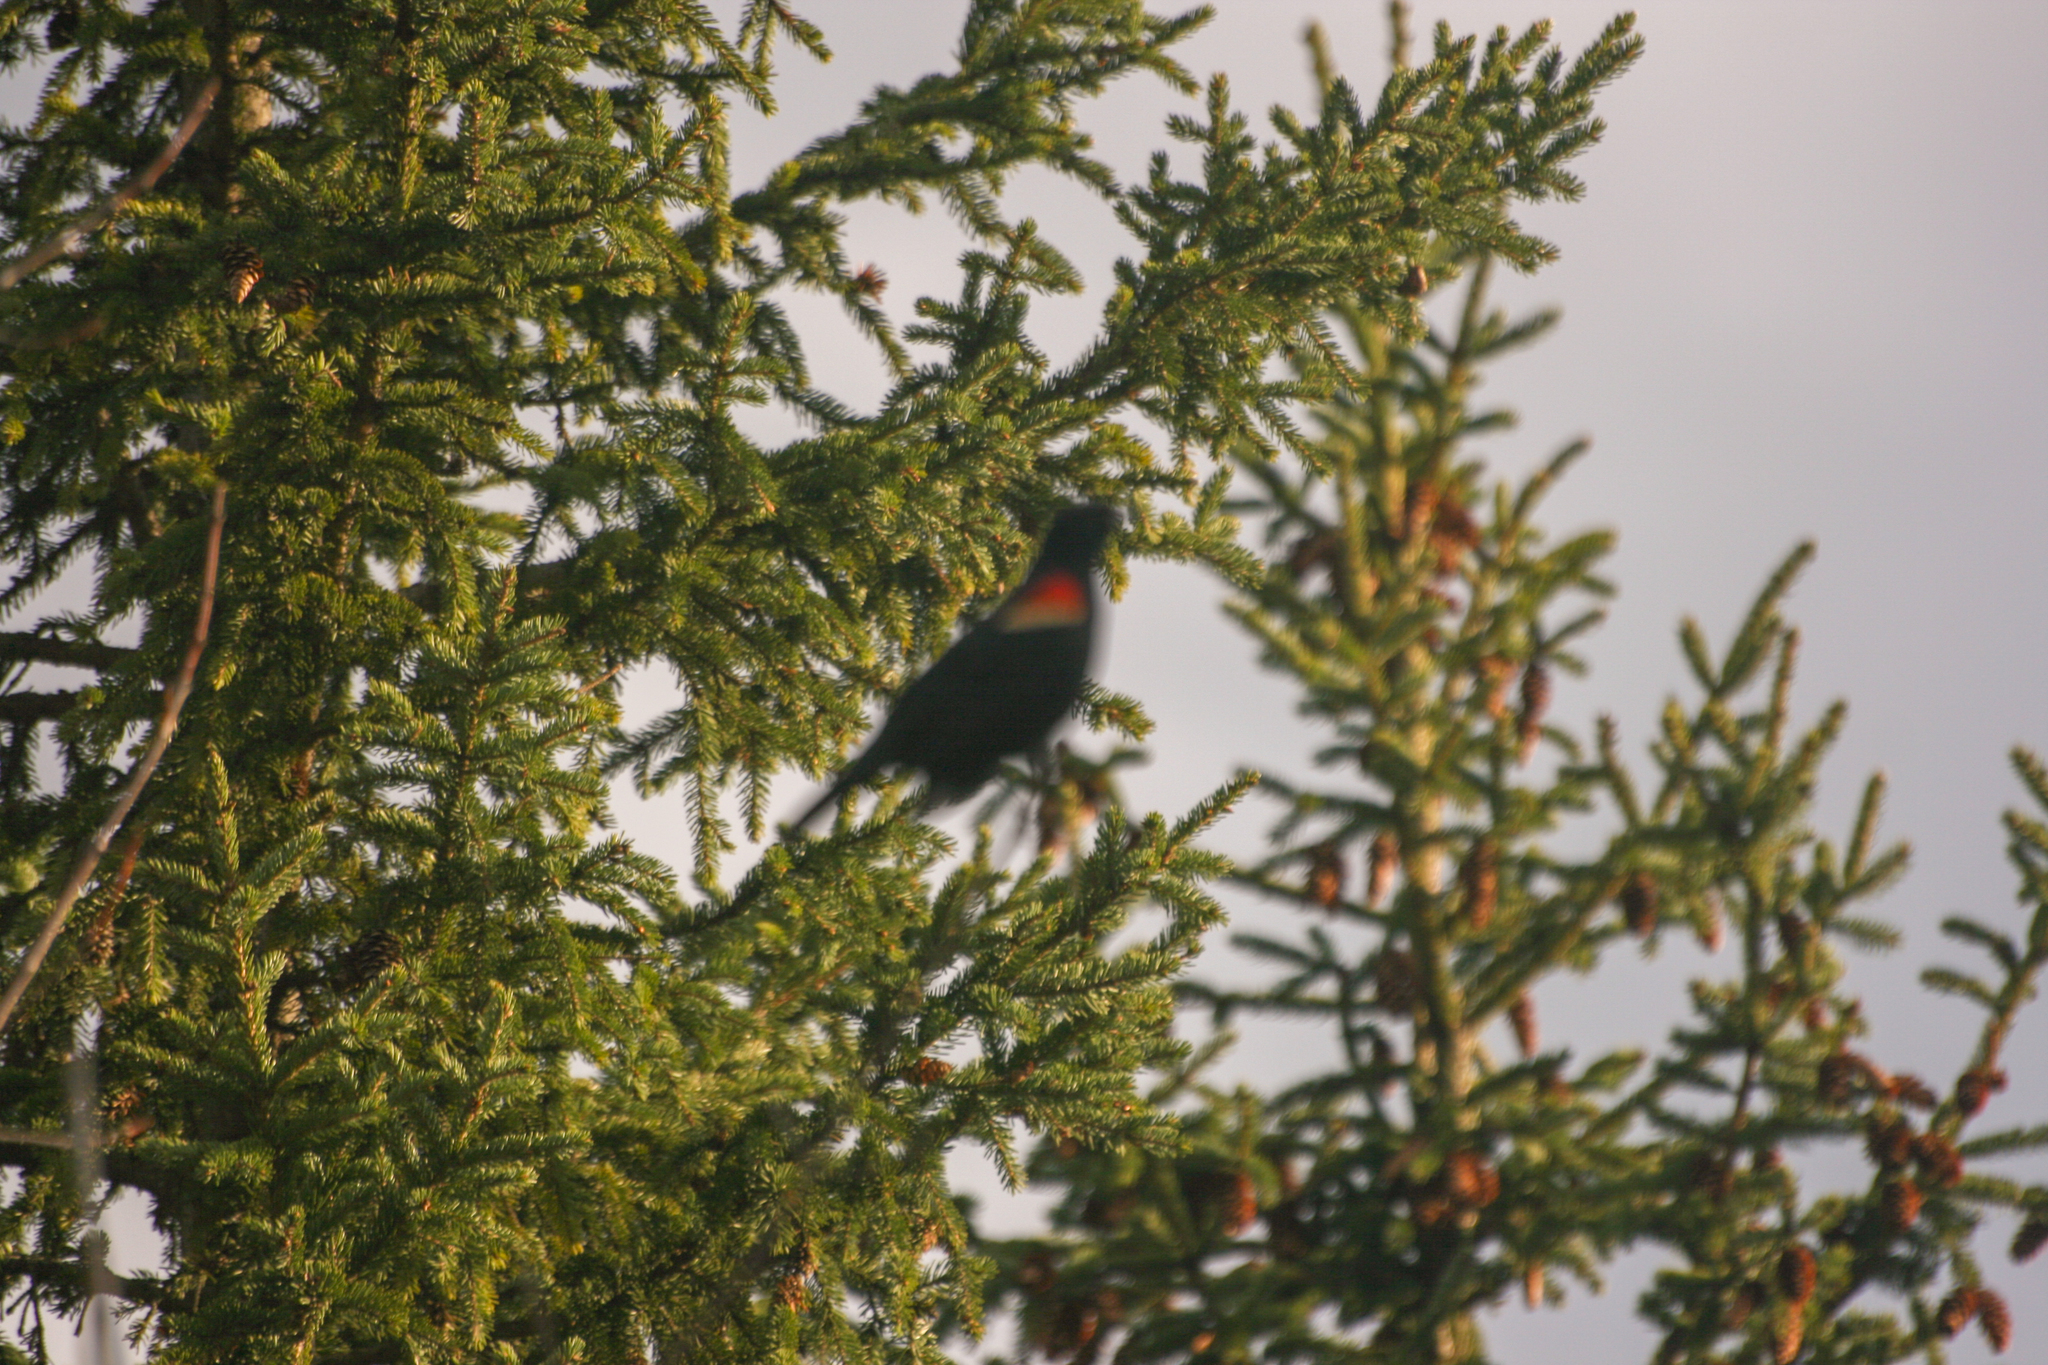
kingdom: Animalia
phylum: Chordata
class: Aves
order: Passeriformes
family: Icteridae
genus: Agelaius
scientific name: Agelaius phoeniceus
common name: Red-winged blackbird
